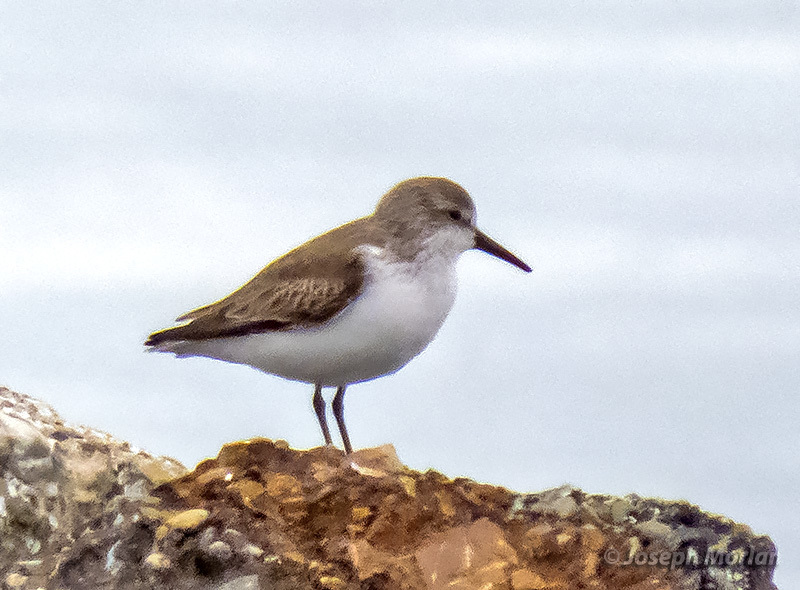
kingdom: Animalia
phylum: Chordata
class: Aves
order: Charadriiformes
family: Scolopacidae
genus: Calidris
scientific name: Calidris mauri
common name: Western sandpiper
